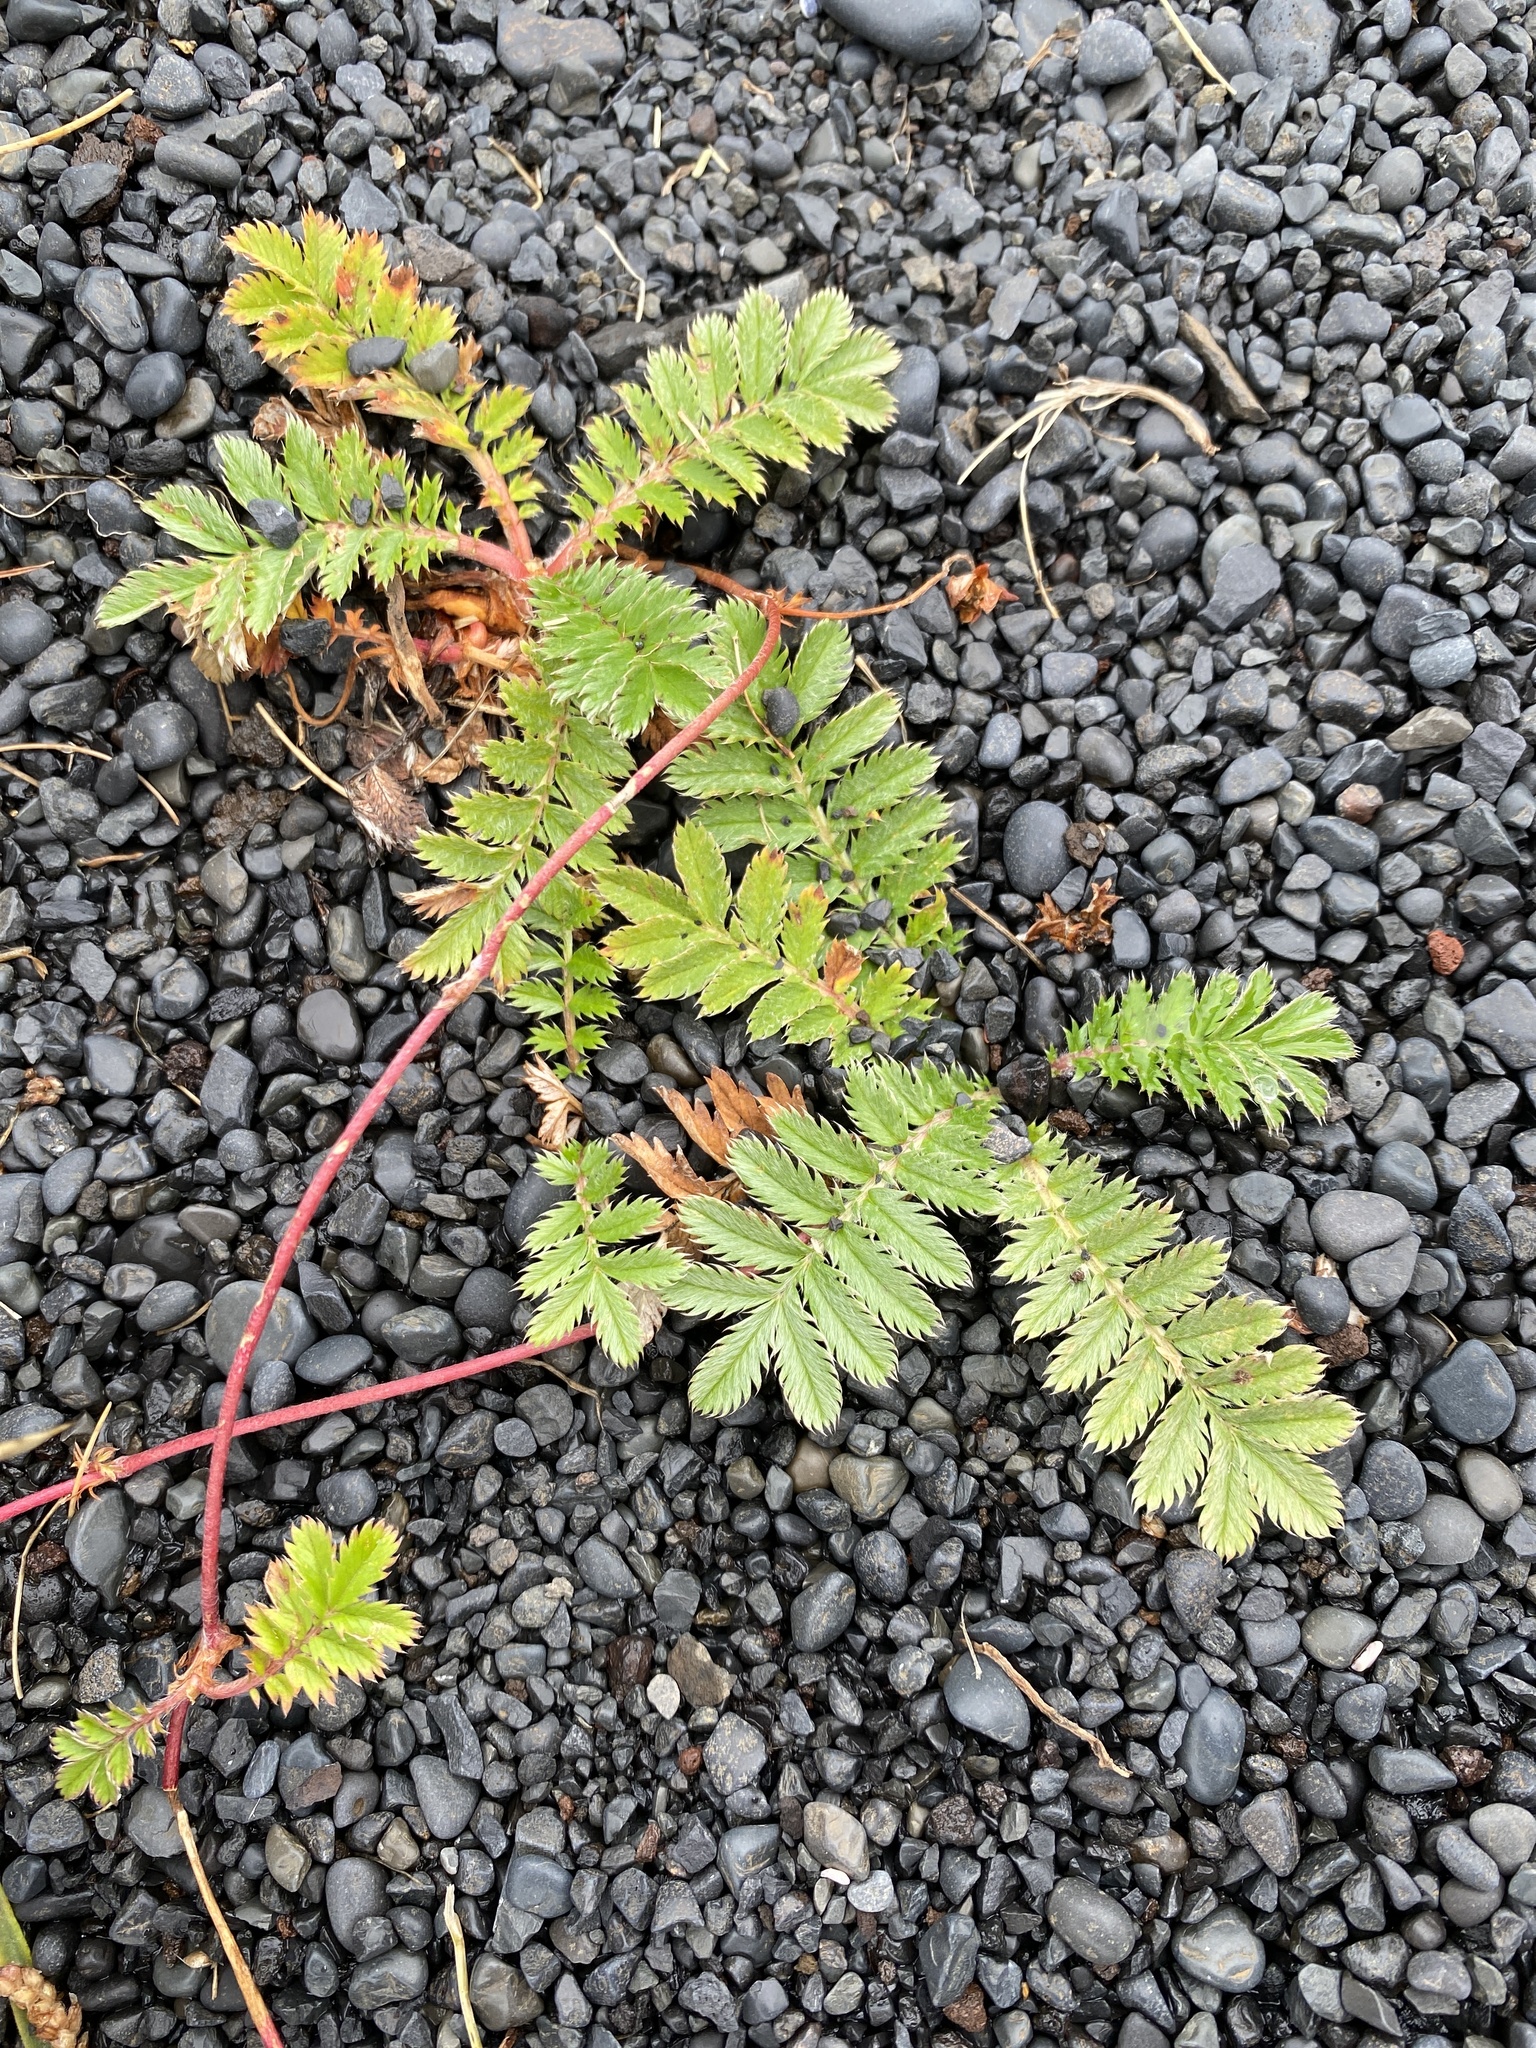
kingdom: Plantae
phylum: Tracheophyta
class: Magnoliopsida
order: Rosales
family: Rosaceae
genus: Argentina
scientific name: Argentina anserina
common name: Common silverweed
